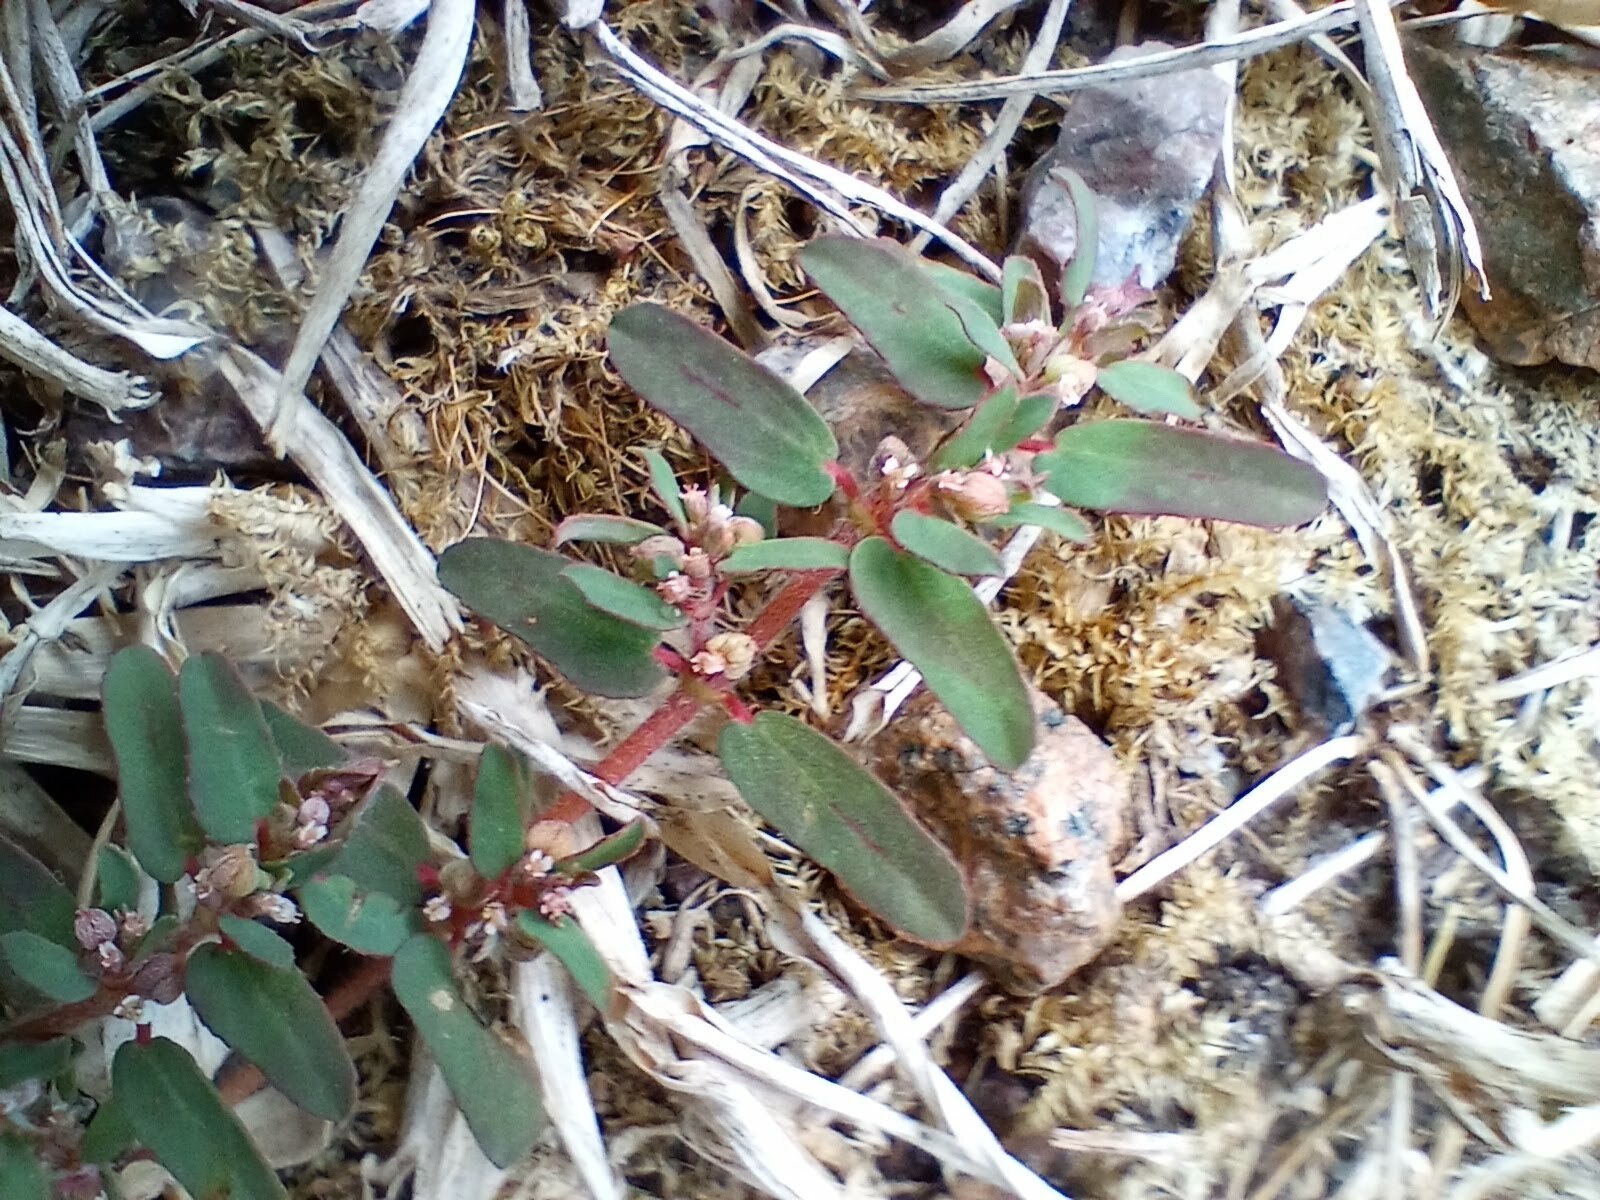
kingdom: Plantae
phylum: Tracheophyta
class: Magnoliopsida
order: Malpighiales
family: Euphorbiaceae
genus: Euphorbia
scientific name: Euphorbia maculata
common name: Spotted spurge
